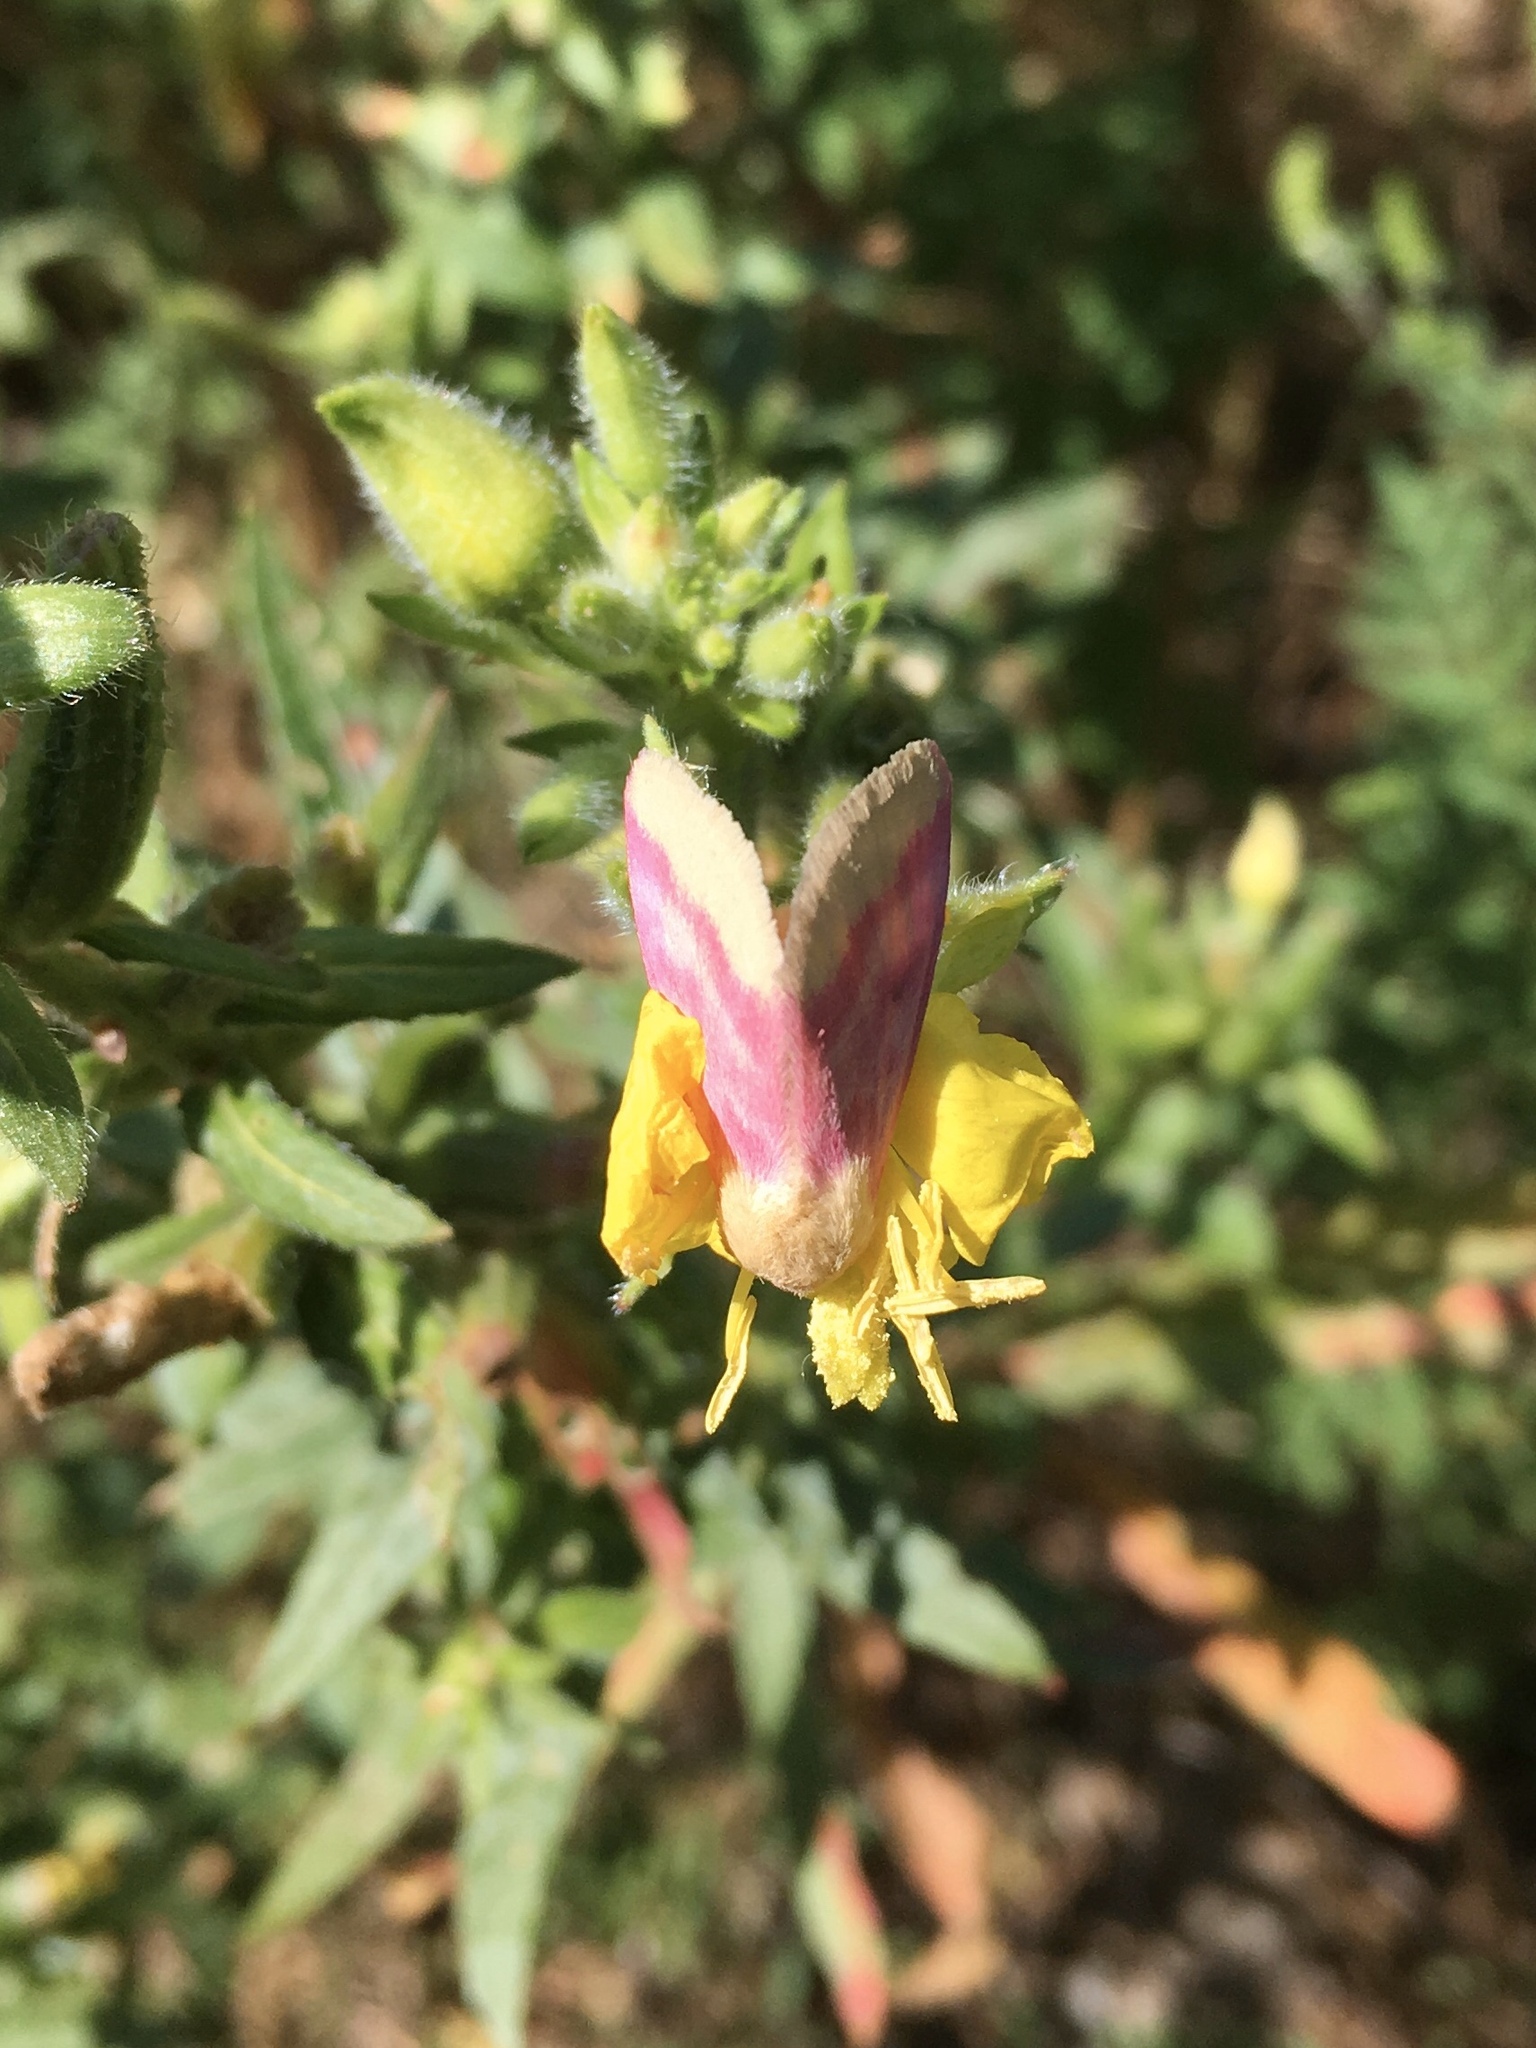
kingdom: Animalia
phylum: Arthropoda
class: Insecta
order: Lepidoptera
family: Noctuidae
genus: Schinia
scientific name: Schinia florida
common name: Primrose moth
